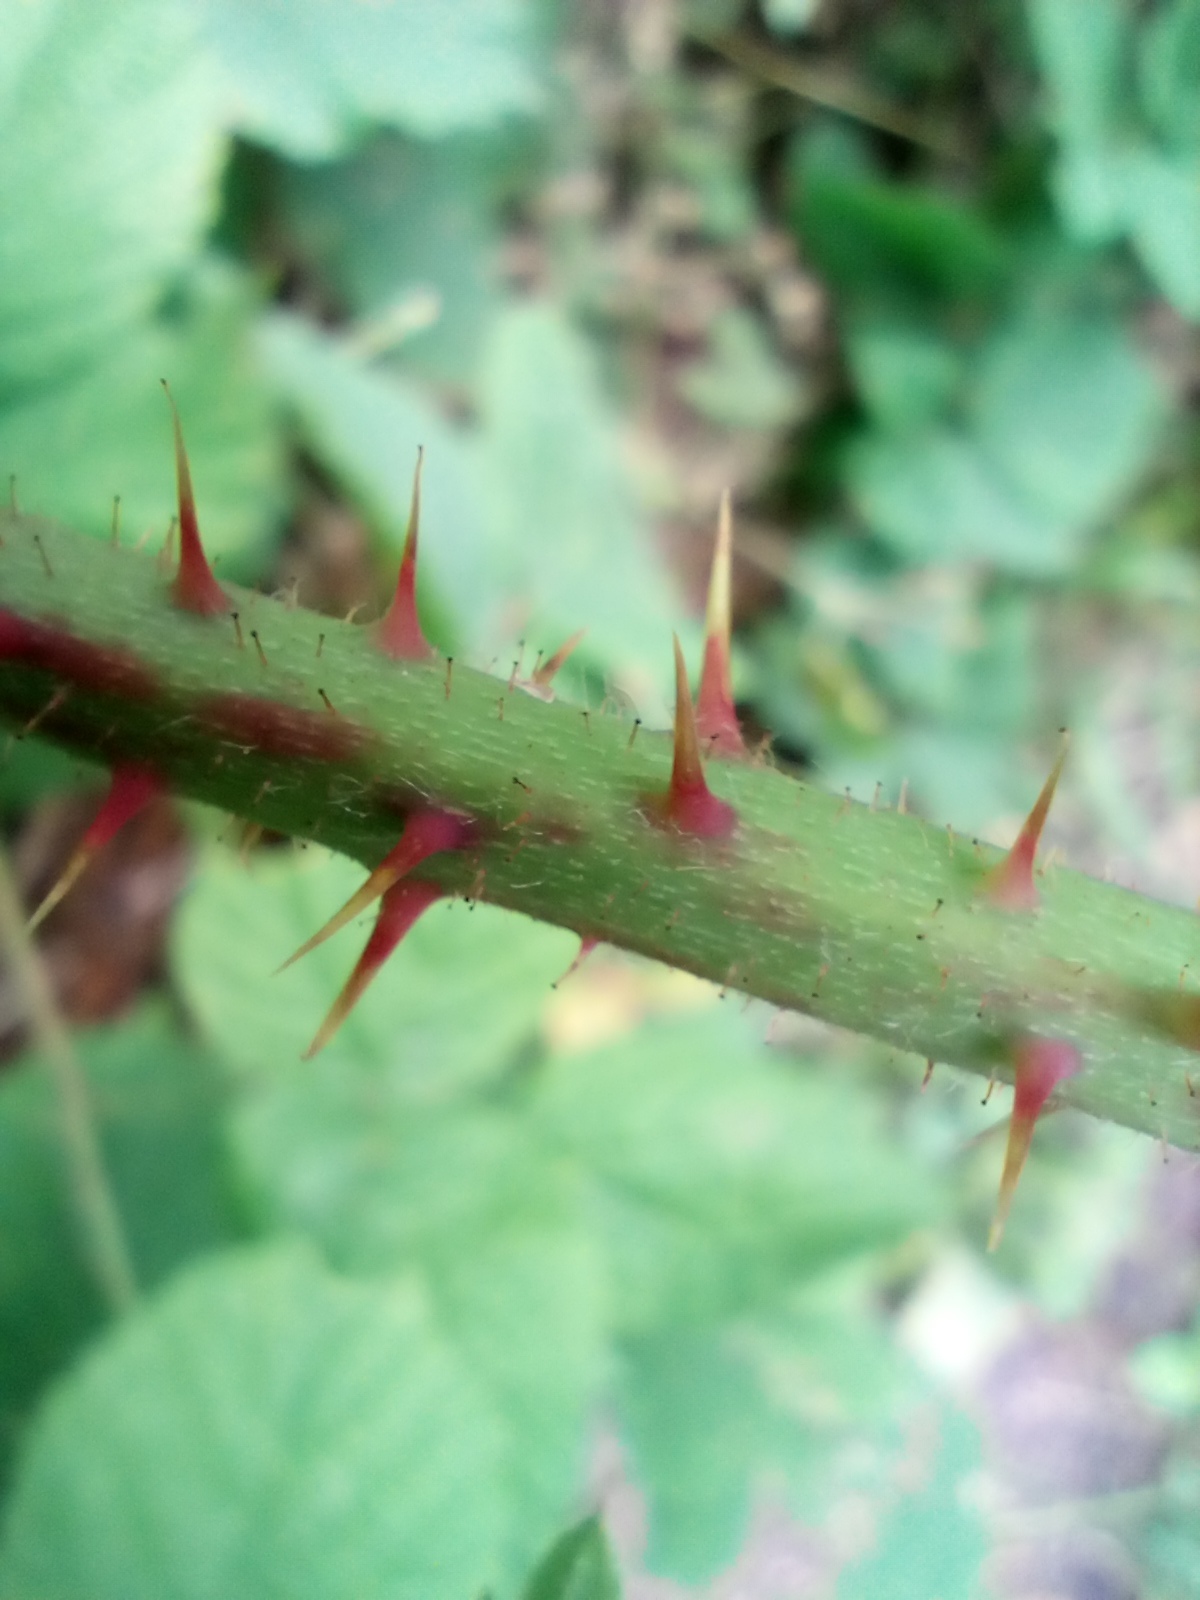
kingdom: Plantae
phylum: Tracheophyta
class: Magnoliopsida
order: Rosales
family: Rosaceae
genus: Rubus
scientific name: Rubus fabrimontanus
